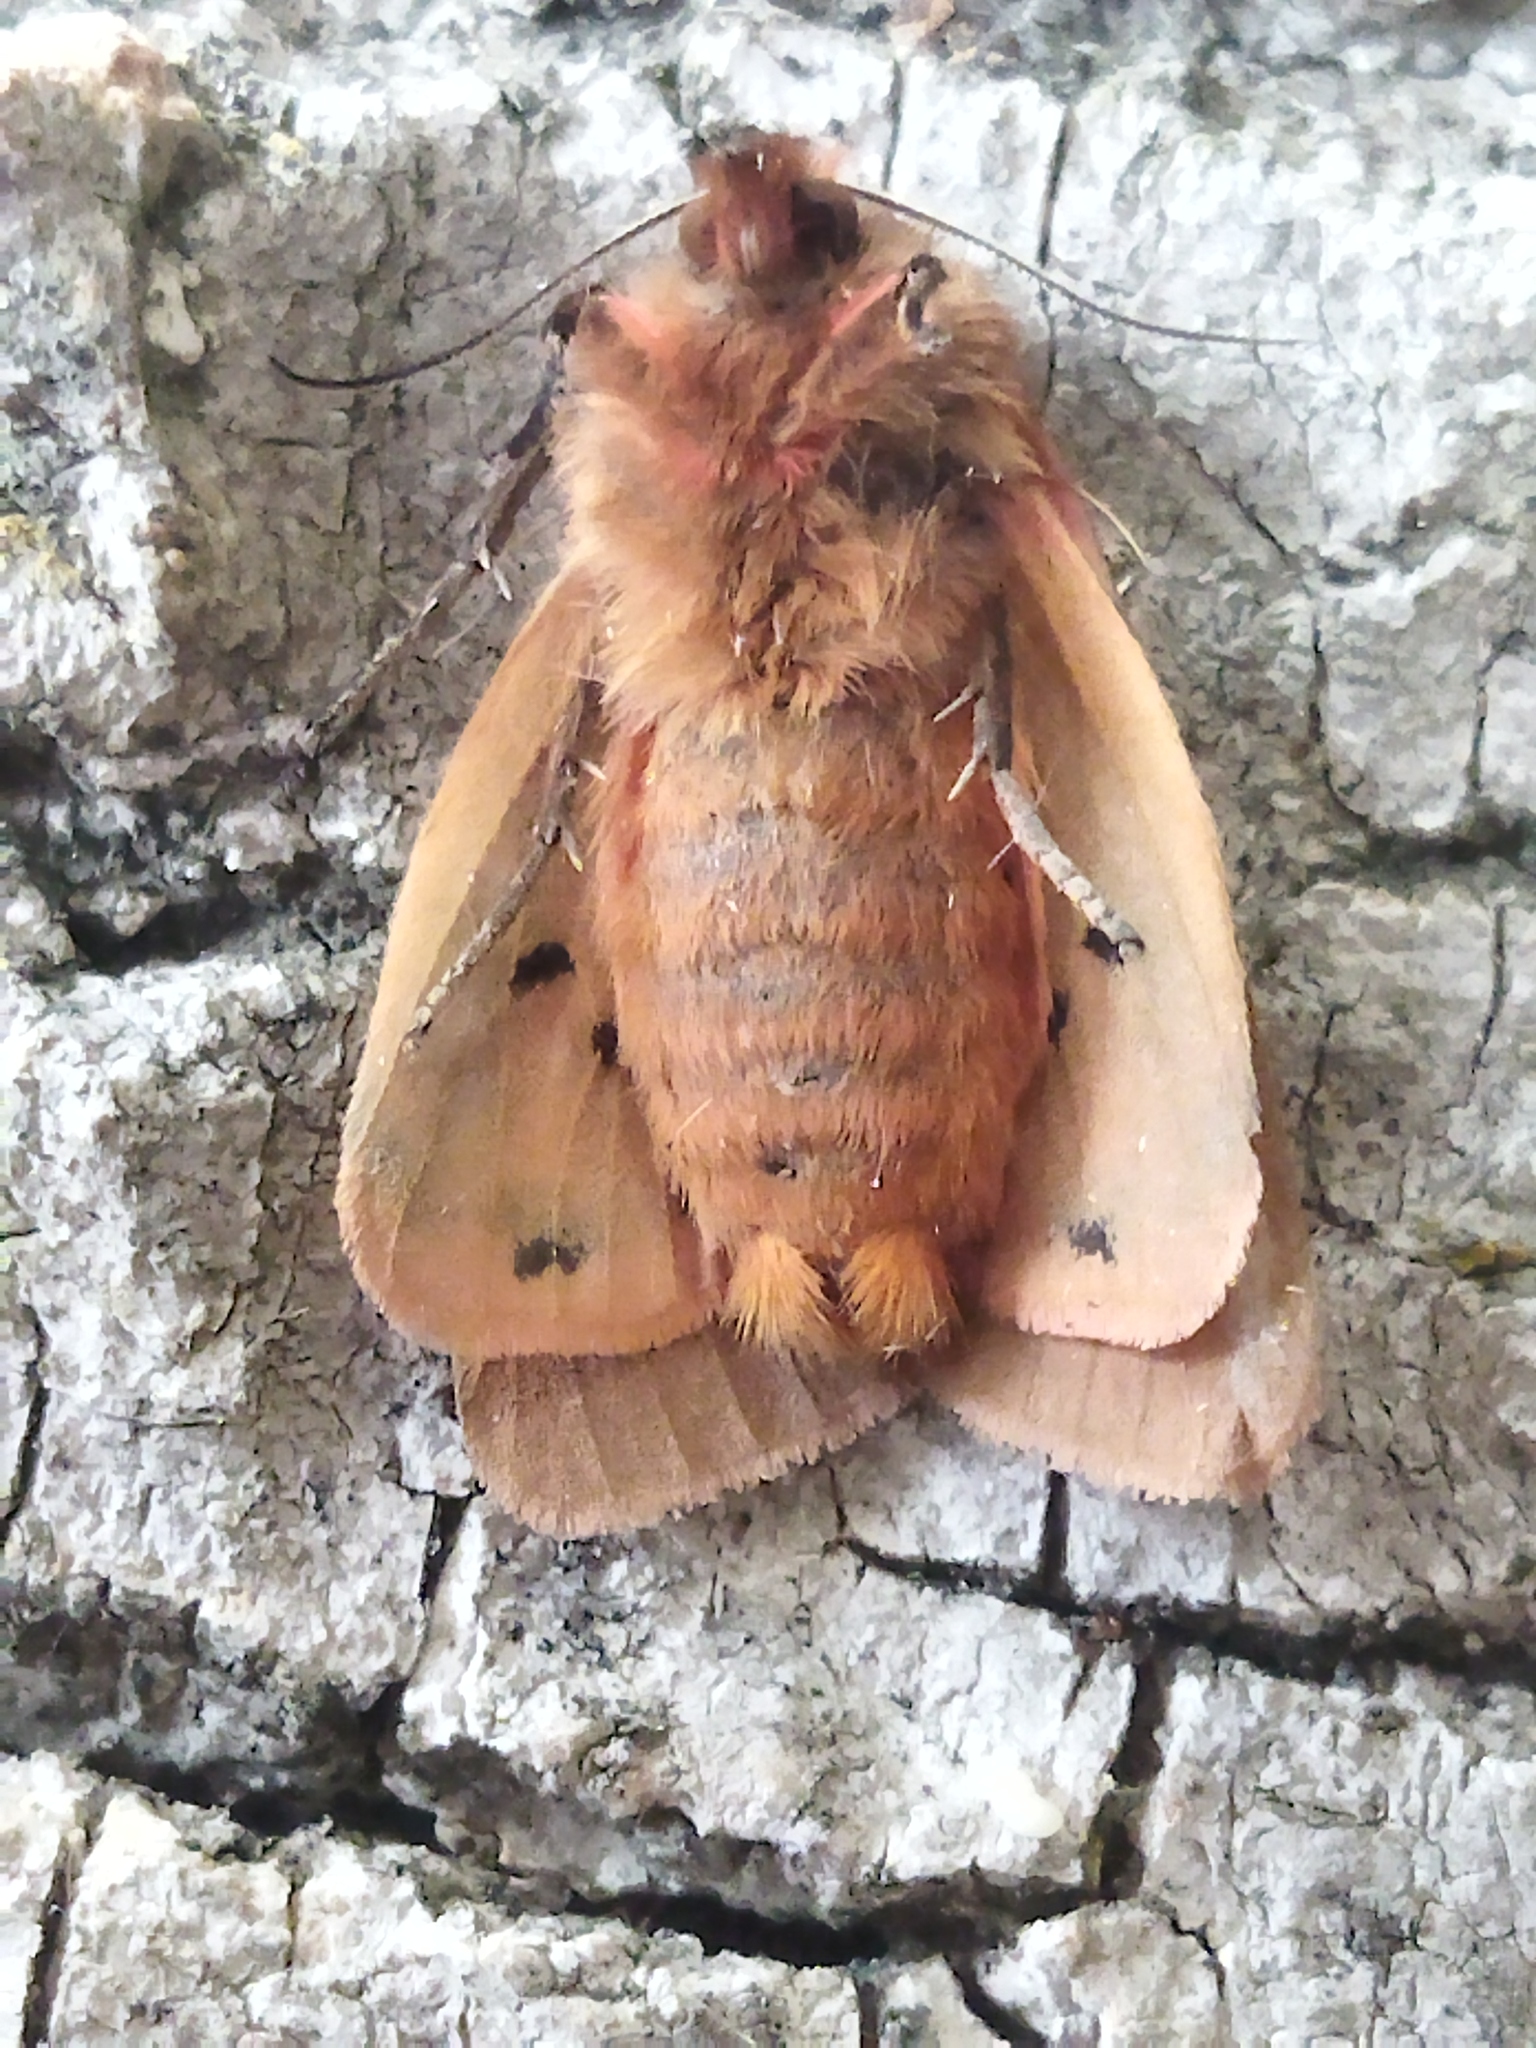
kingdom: Animalia
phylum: Arthropoda
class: Insecta
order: Lepidoptera
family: Erebidae
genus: Phragmatobia
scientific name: Phragmatobia fuliginosa
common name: Ruby tiger
